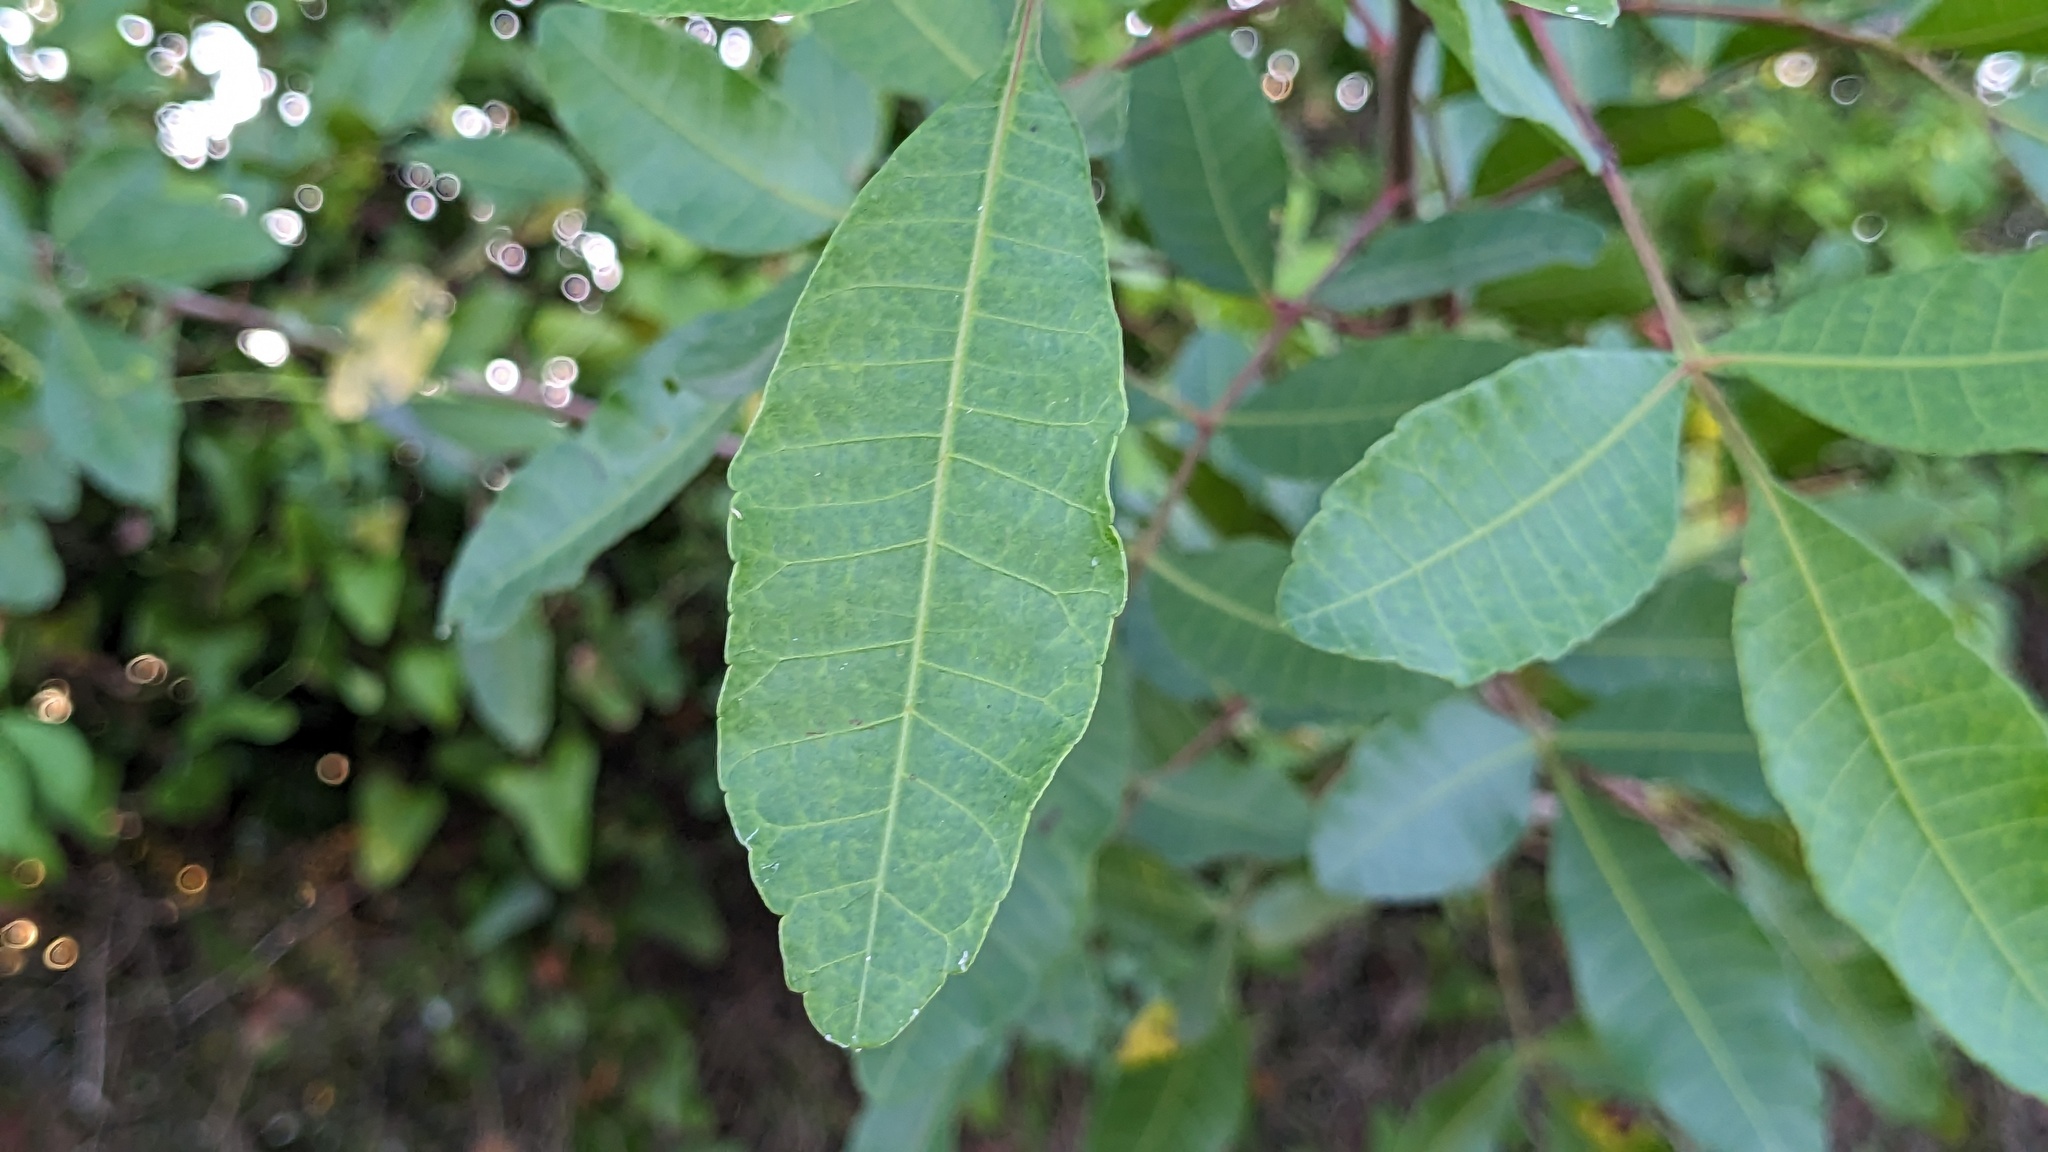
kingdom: Plantae
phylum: Tracheophyta
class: Magnoliopsida
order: Sapindales
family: Anacardiaceae
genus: Schinus
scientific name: Schinus terebinthifolia
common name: Brazilian peppertree
